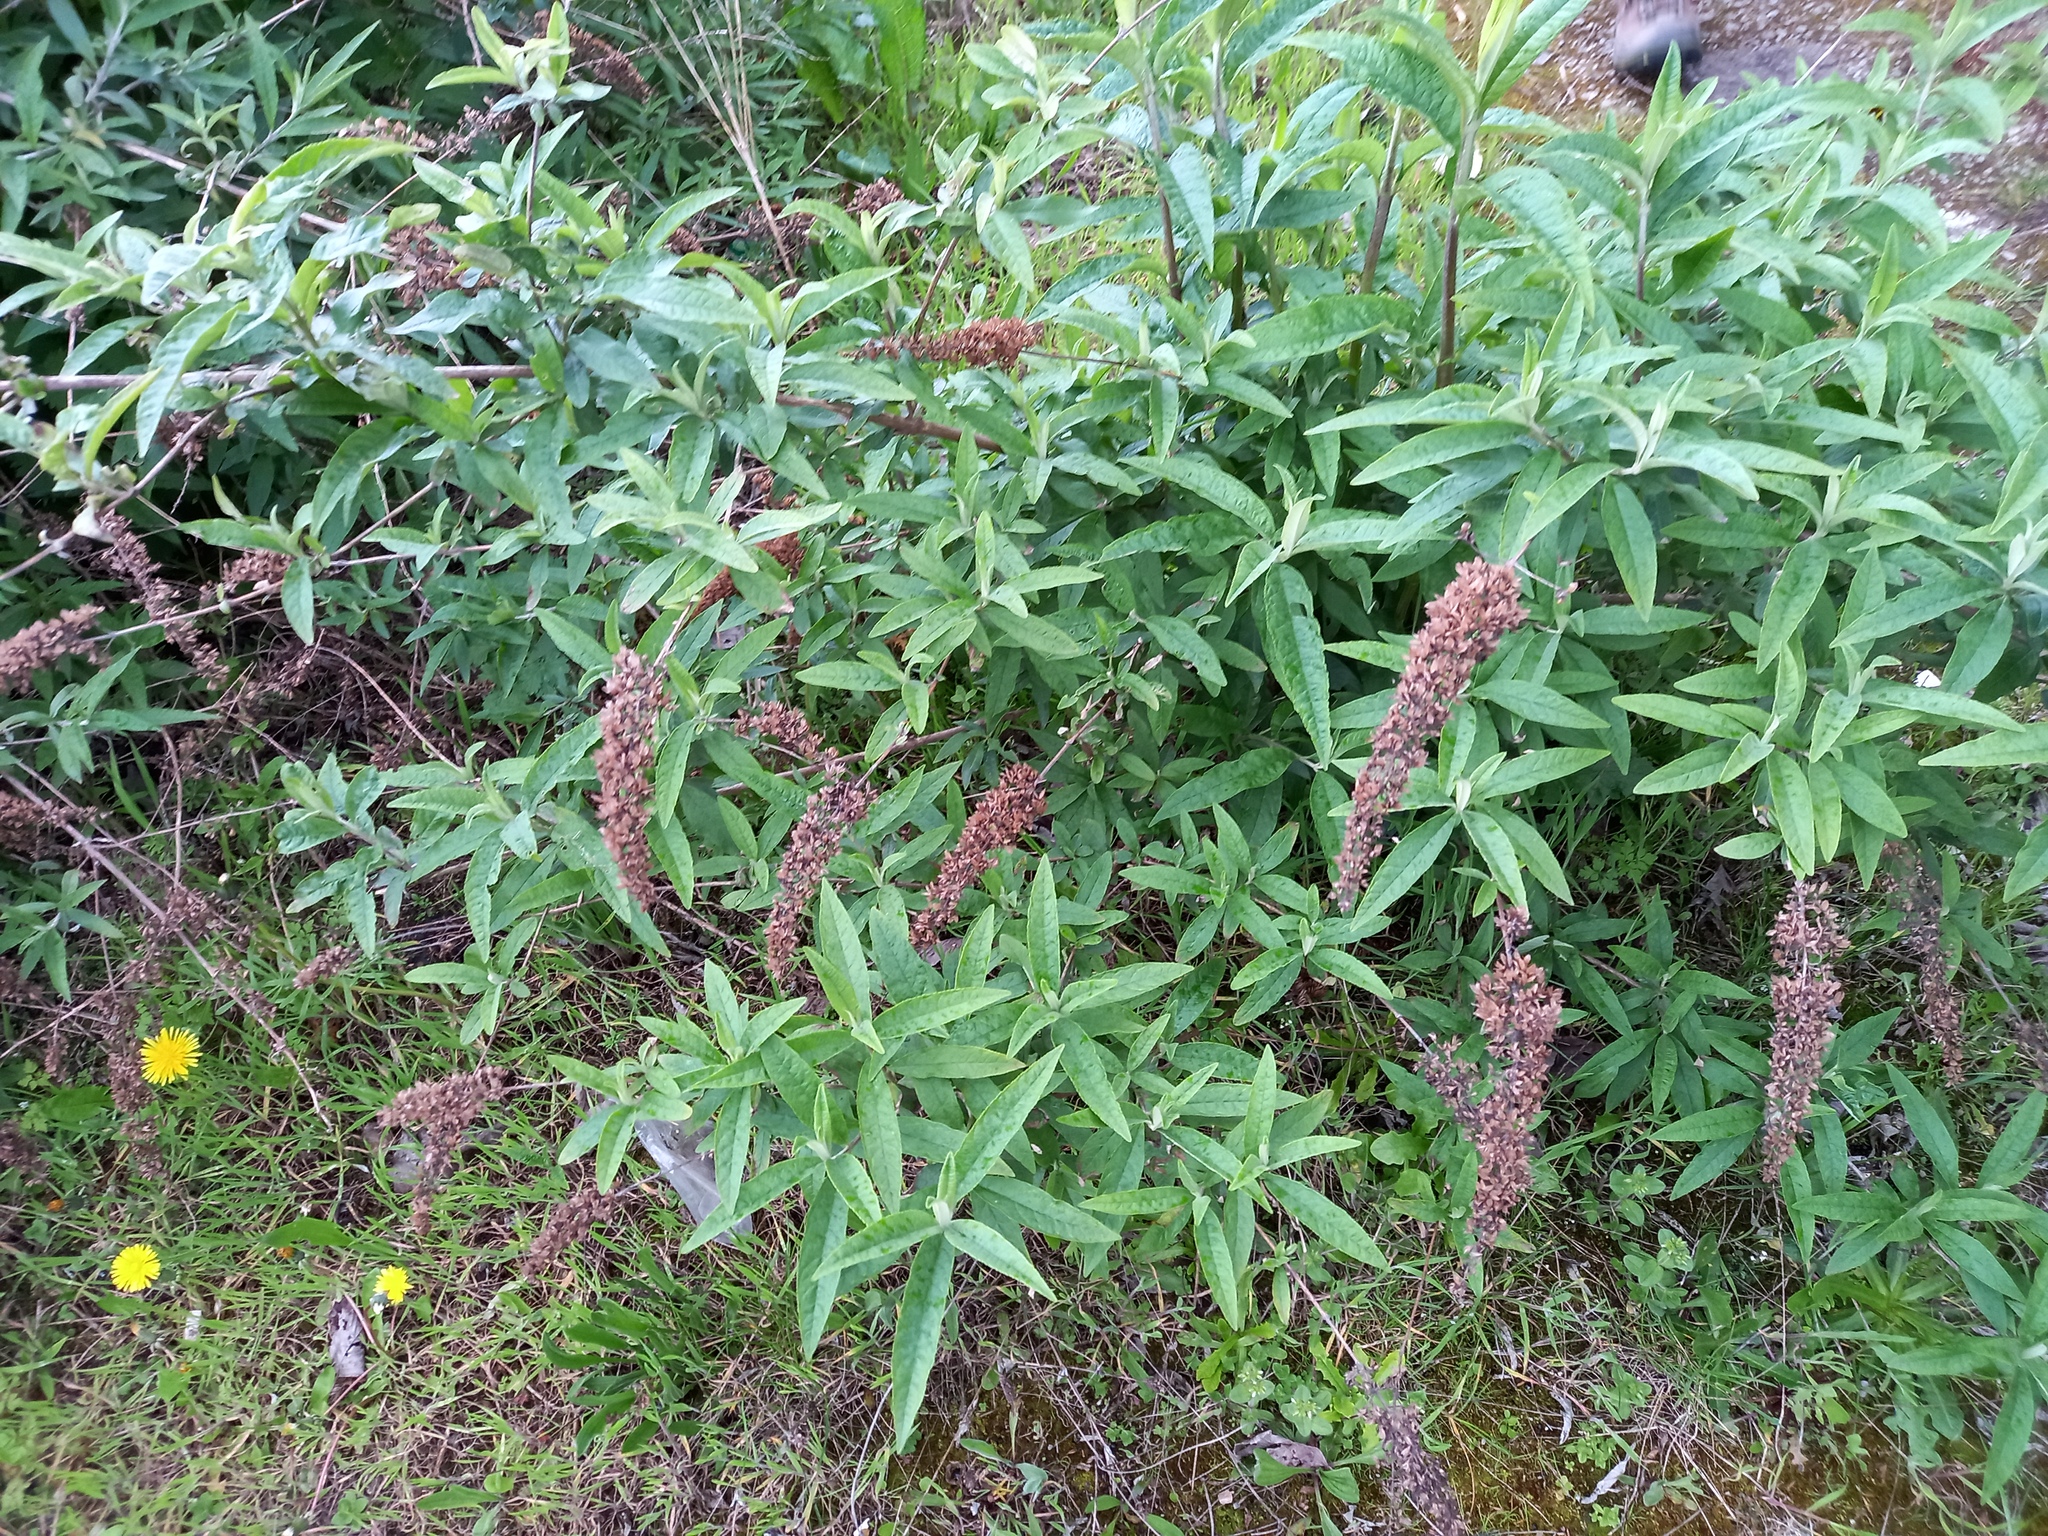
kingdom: Plantae
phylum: Tracheophyta
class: Magnoliopsida
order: Lamiales
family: Scrophulariaceae
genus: Buddleja
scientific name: Buddleja davidii
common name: Butterfly-bush
